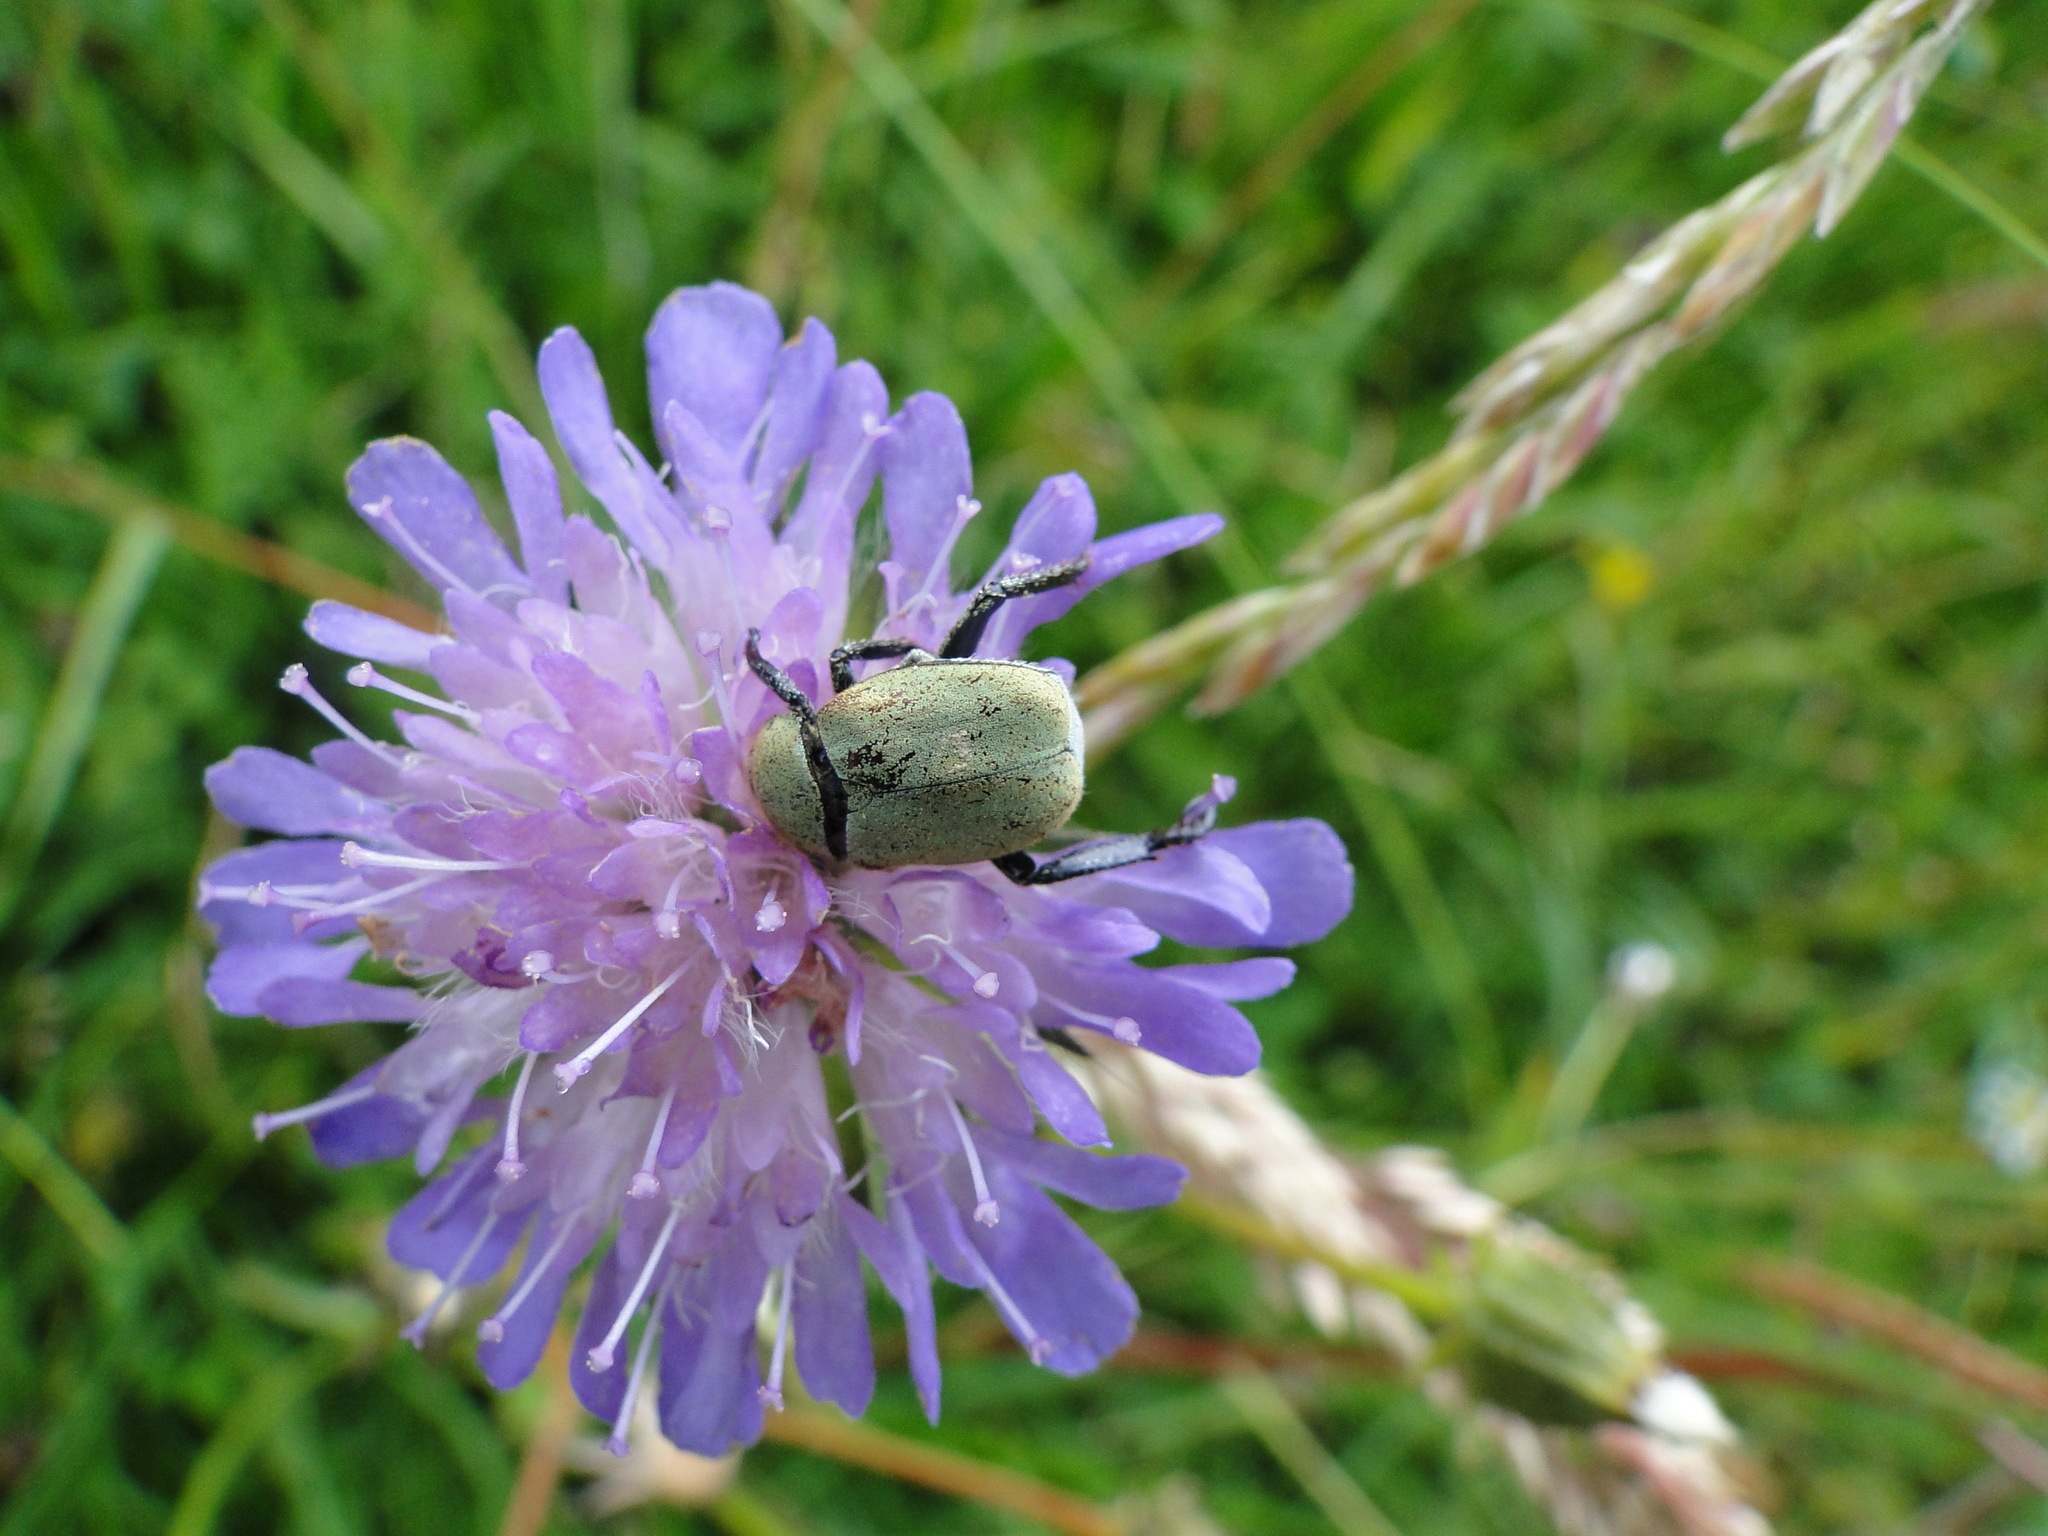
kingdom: Animalia
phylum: Arthropoda
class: Insecta
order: Coleoptera
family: Scarabaeidae
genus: Hoplia
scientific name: Hoplia argentea
